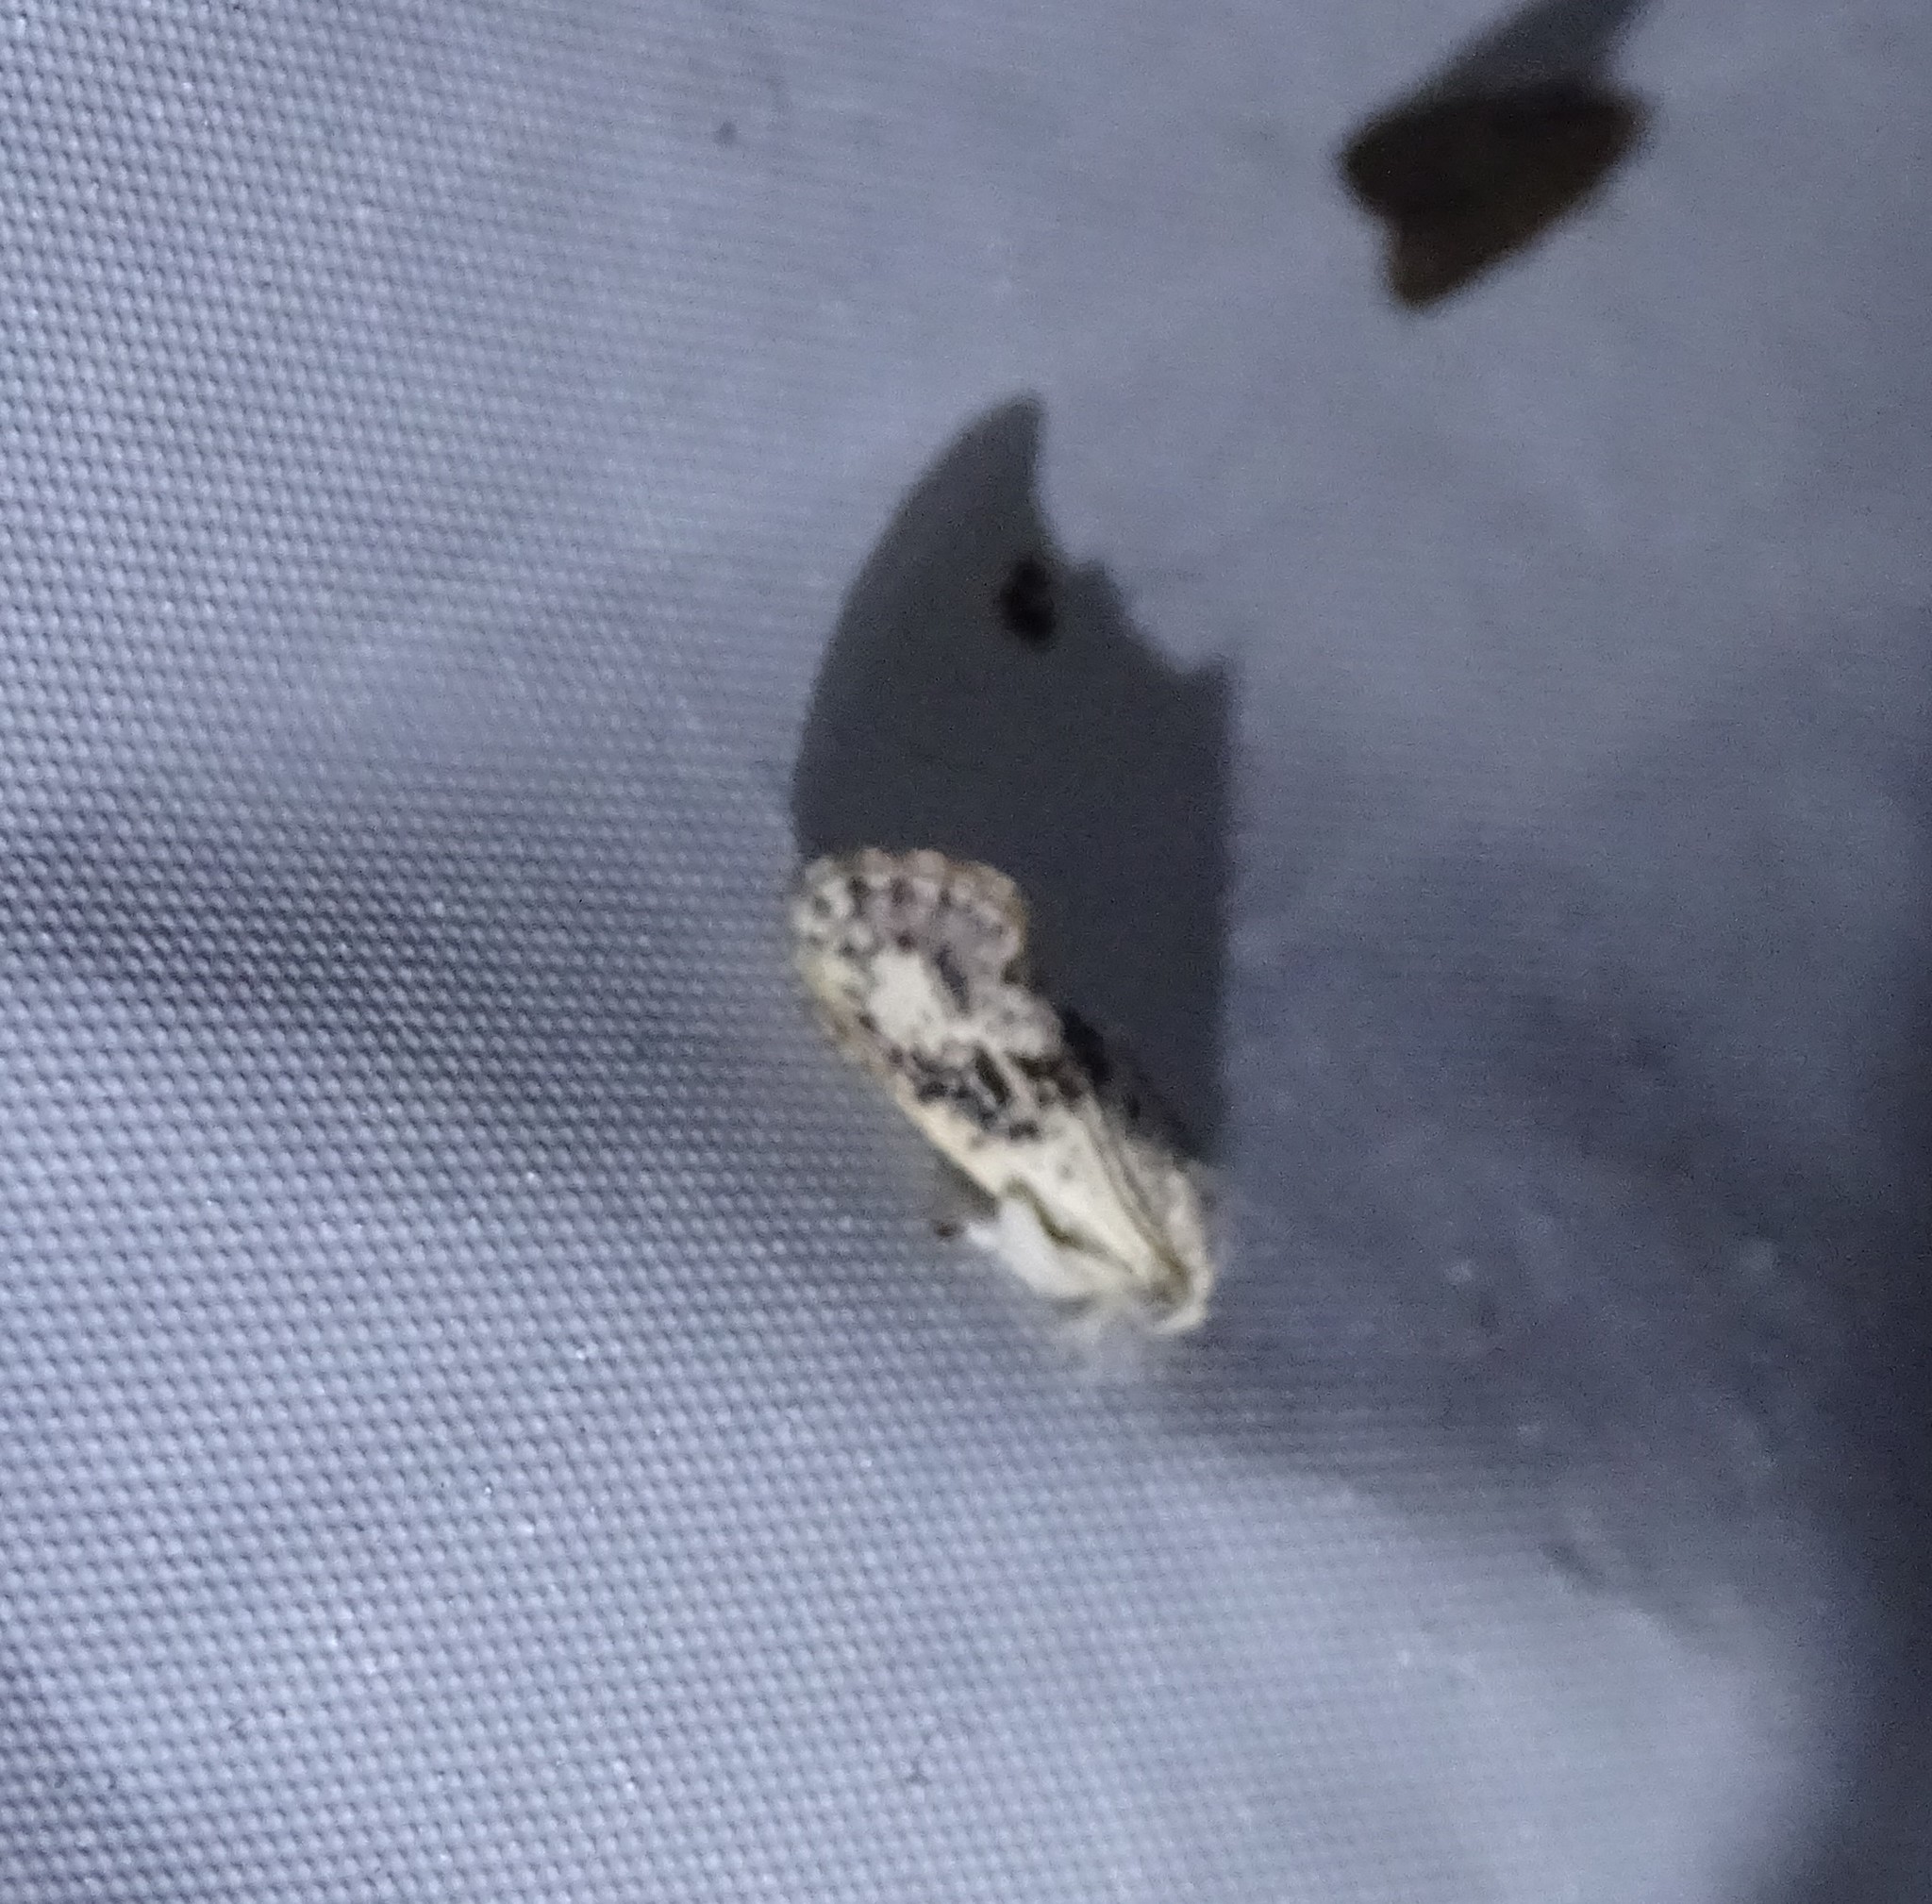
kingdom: Animalia
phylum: Arthropoda
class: Insecta
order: Lepidoptera
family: Tineidae
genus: Acrolophus
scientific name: Acrolophus mycetophagus
